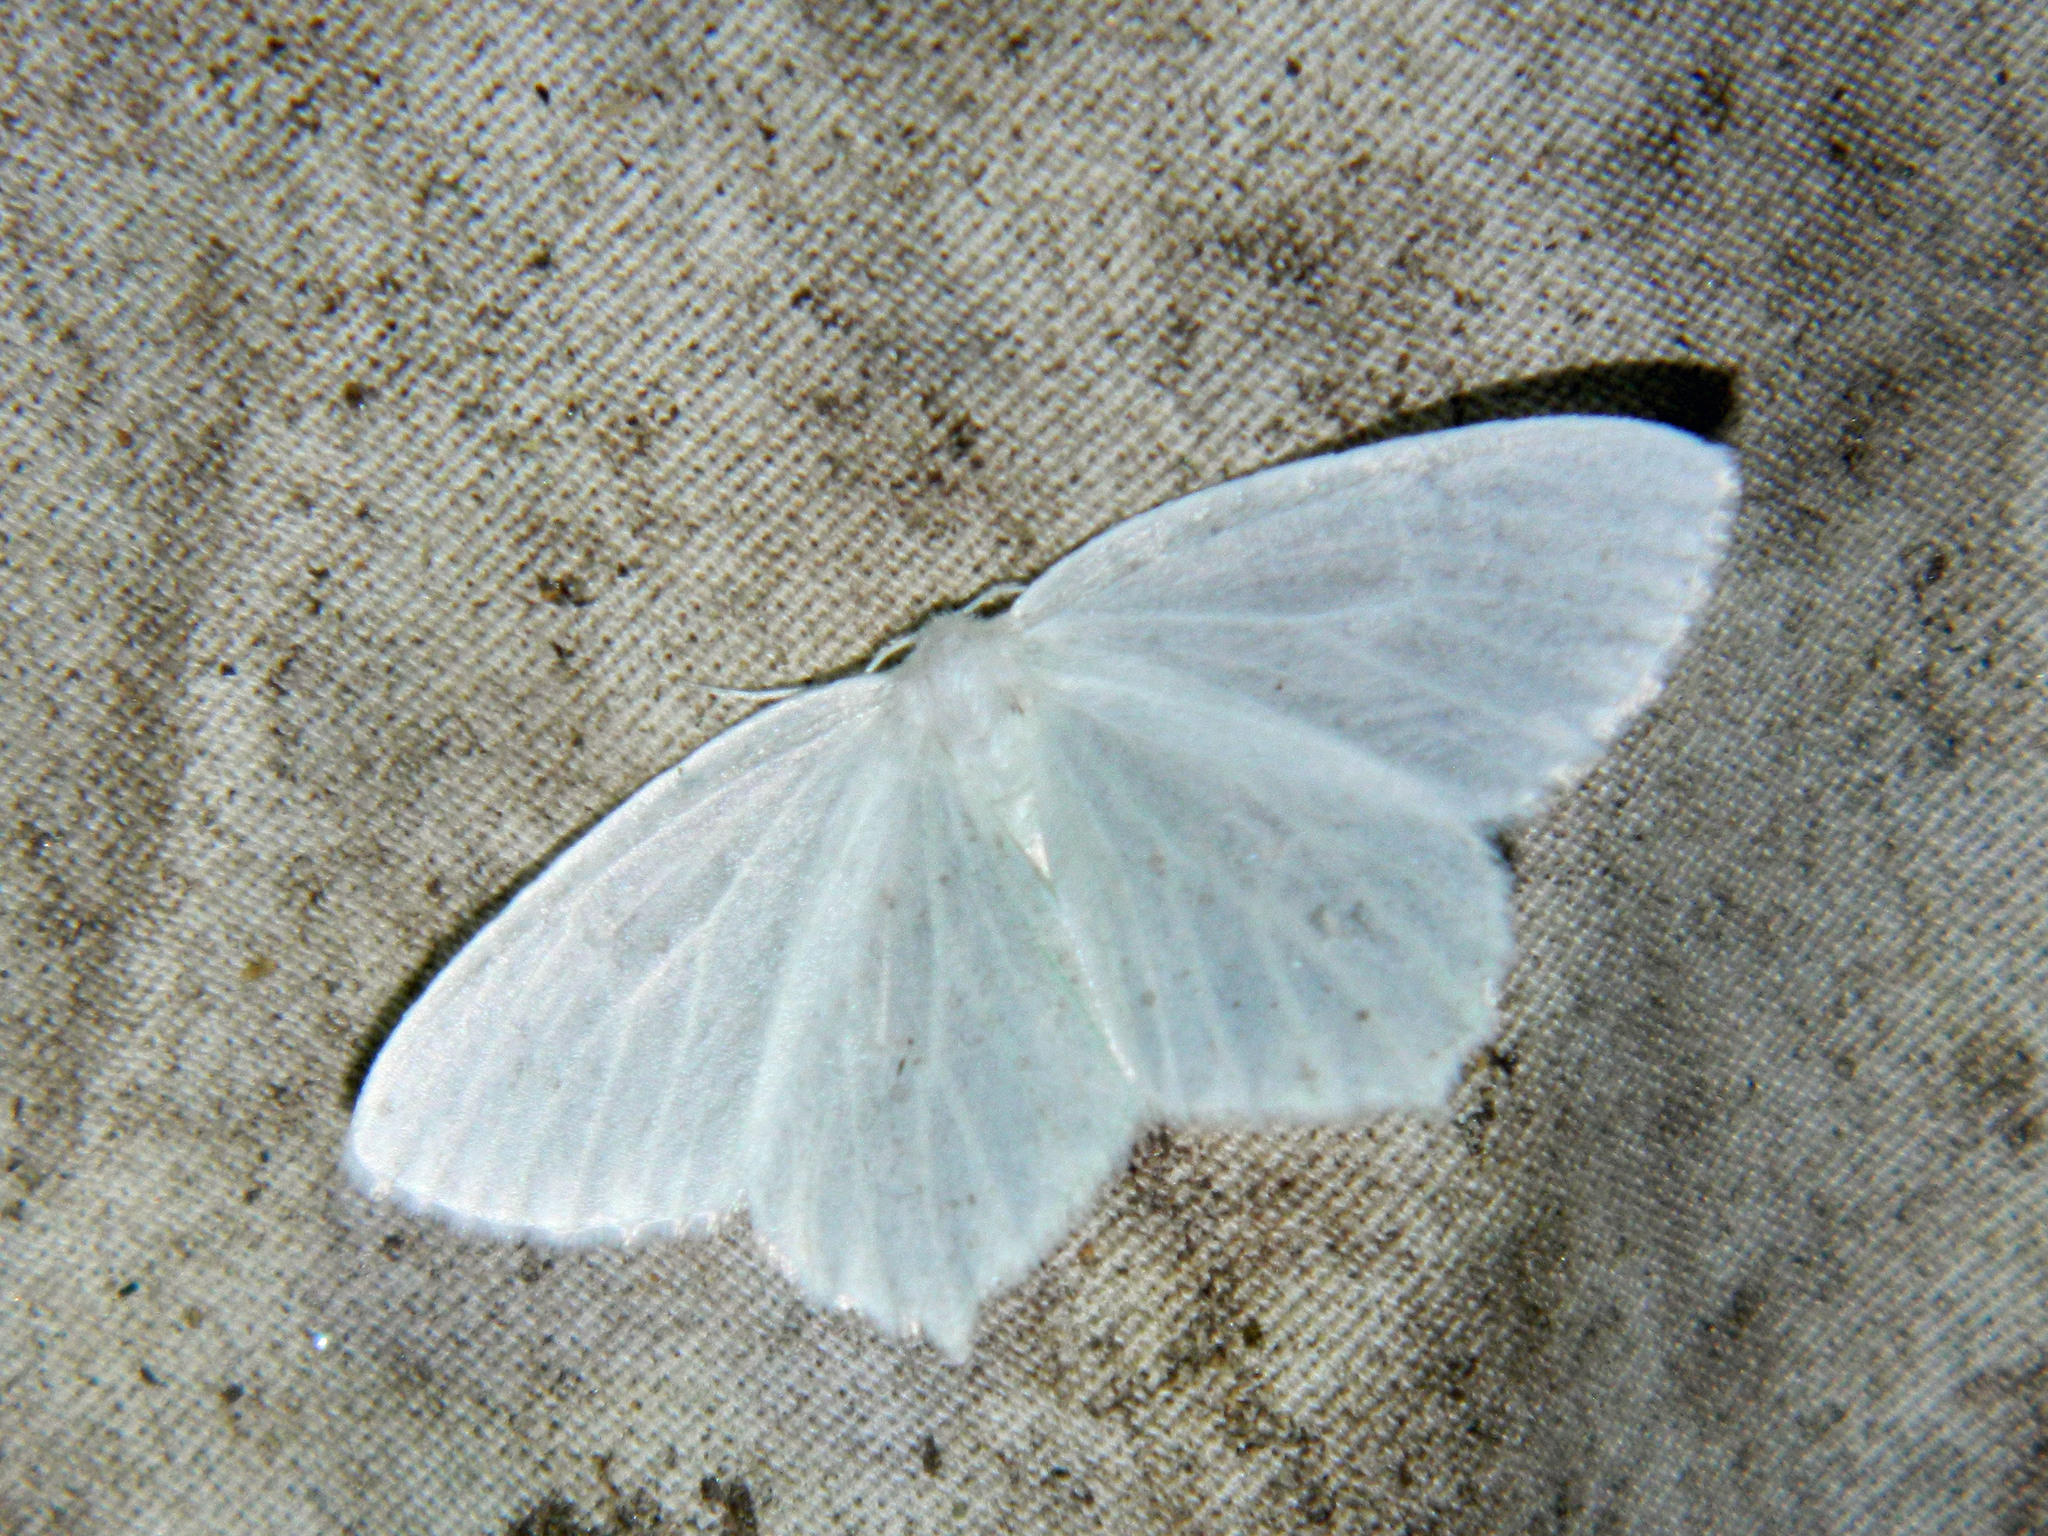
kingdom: Animalia
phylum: Arthropoda
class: Insecta
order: Lepidoptera
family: Geometridae
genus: Eugonobapta
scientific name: Eugonobapta nivosaria
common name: Snowy geometer
